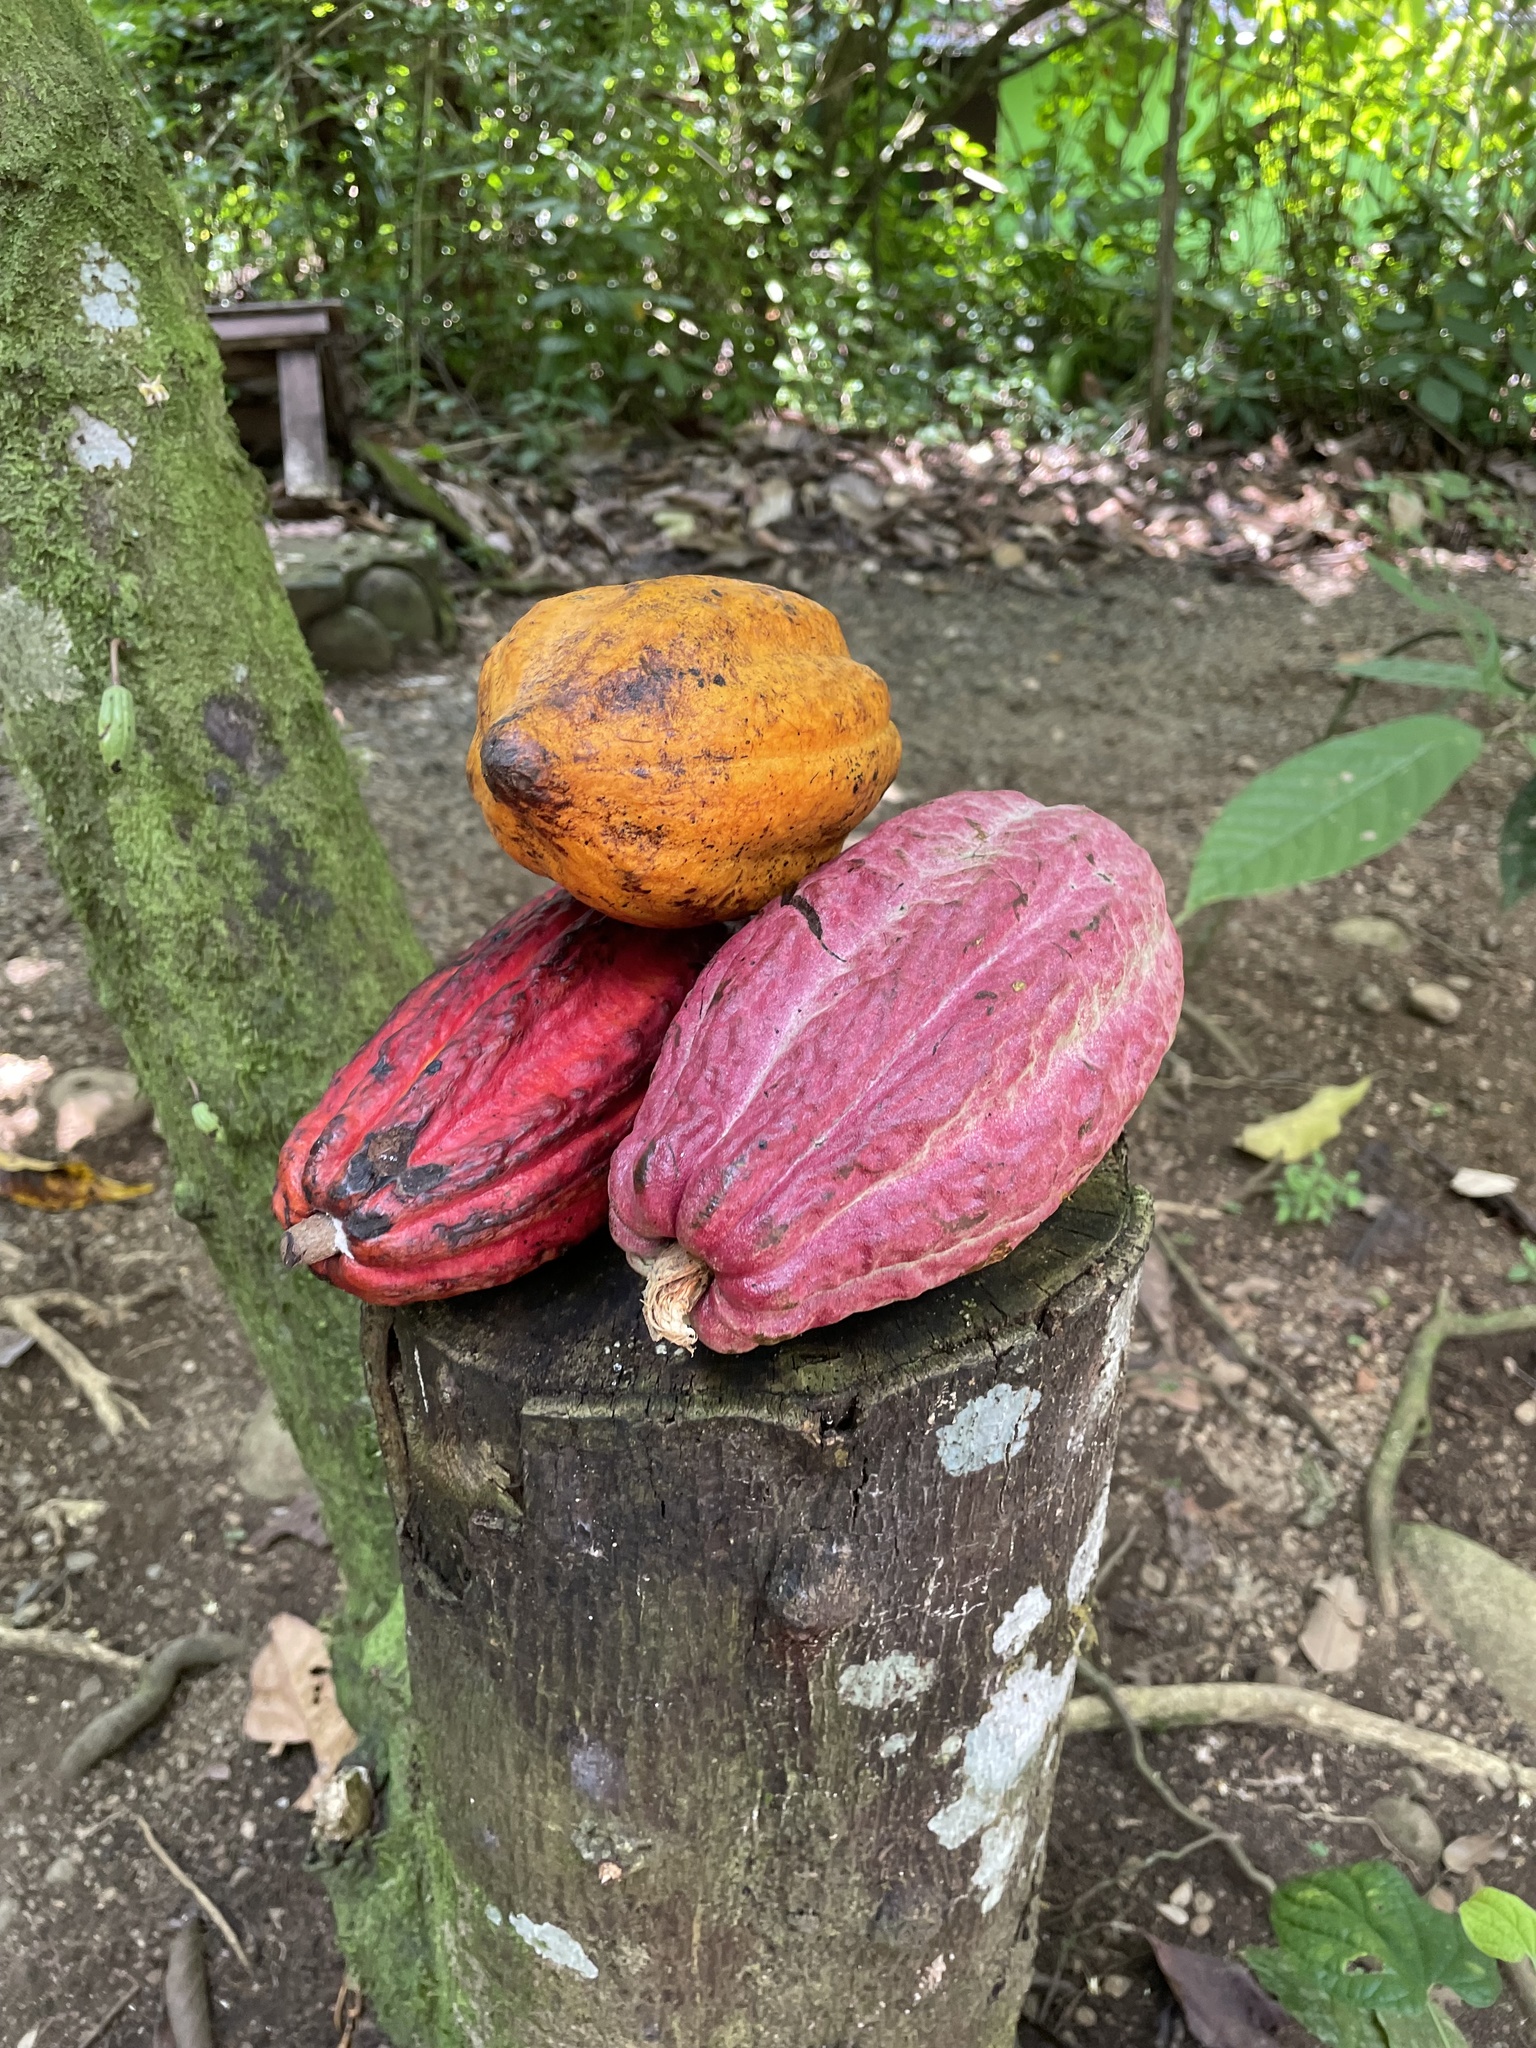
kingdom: Plantae
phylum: Tracheophyta
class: Magnoliopsida
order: Malvales
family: Malvaceae
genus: Theobroma
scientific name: Theobroma cacao
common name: Cocoa
